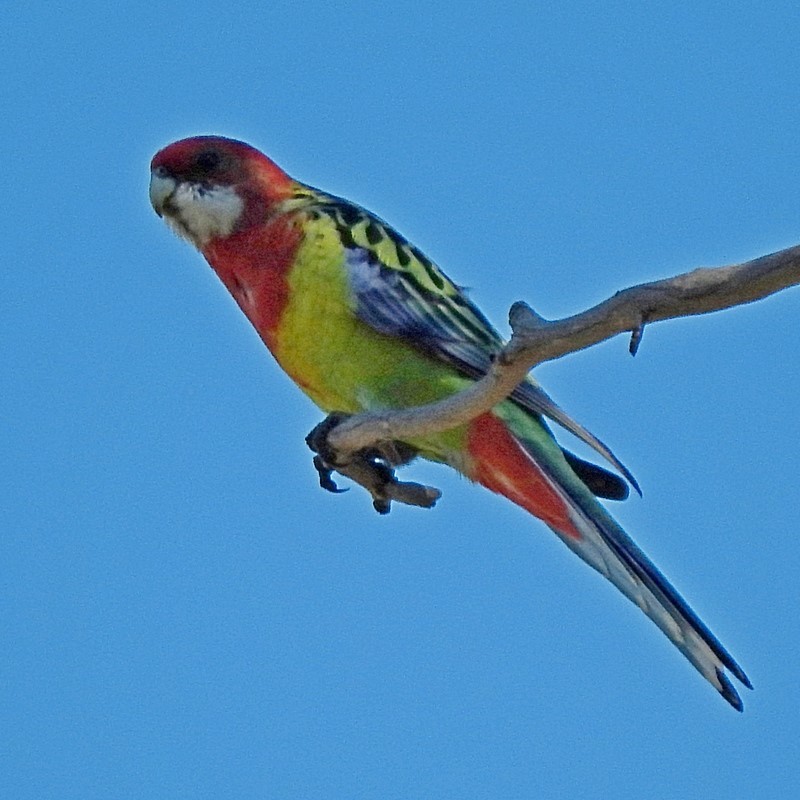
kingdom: Animalia
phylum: Chordata
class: Aves
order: Psittaciformes
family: Psittacidae
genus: Platycercus
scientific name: Platycercus eximius
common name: Eastern rosella
